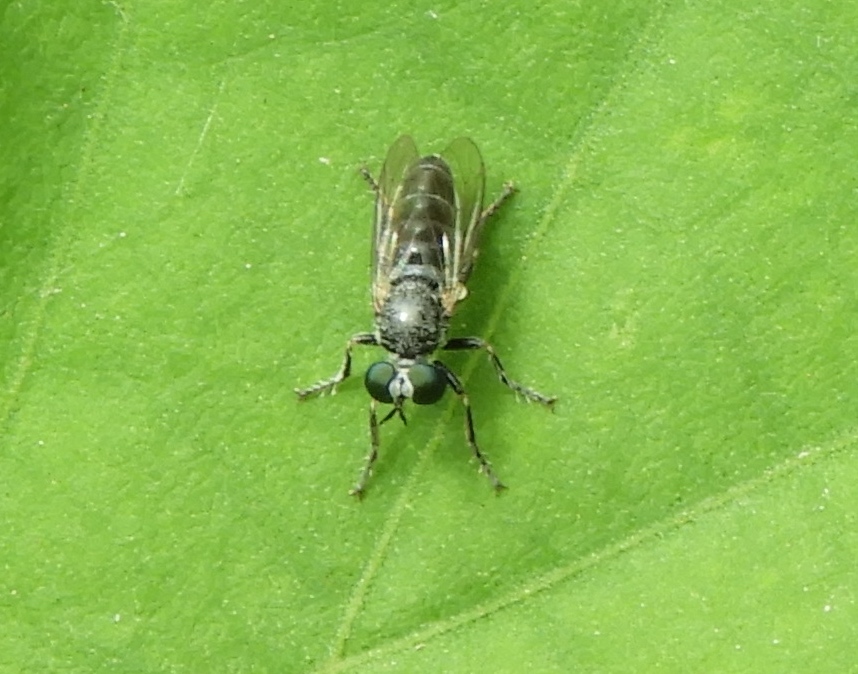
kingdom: Animalia
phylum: Arthropoda
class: Insecta
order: Diptera
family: Asilidae
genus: Atomosia
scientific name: Atomosia
